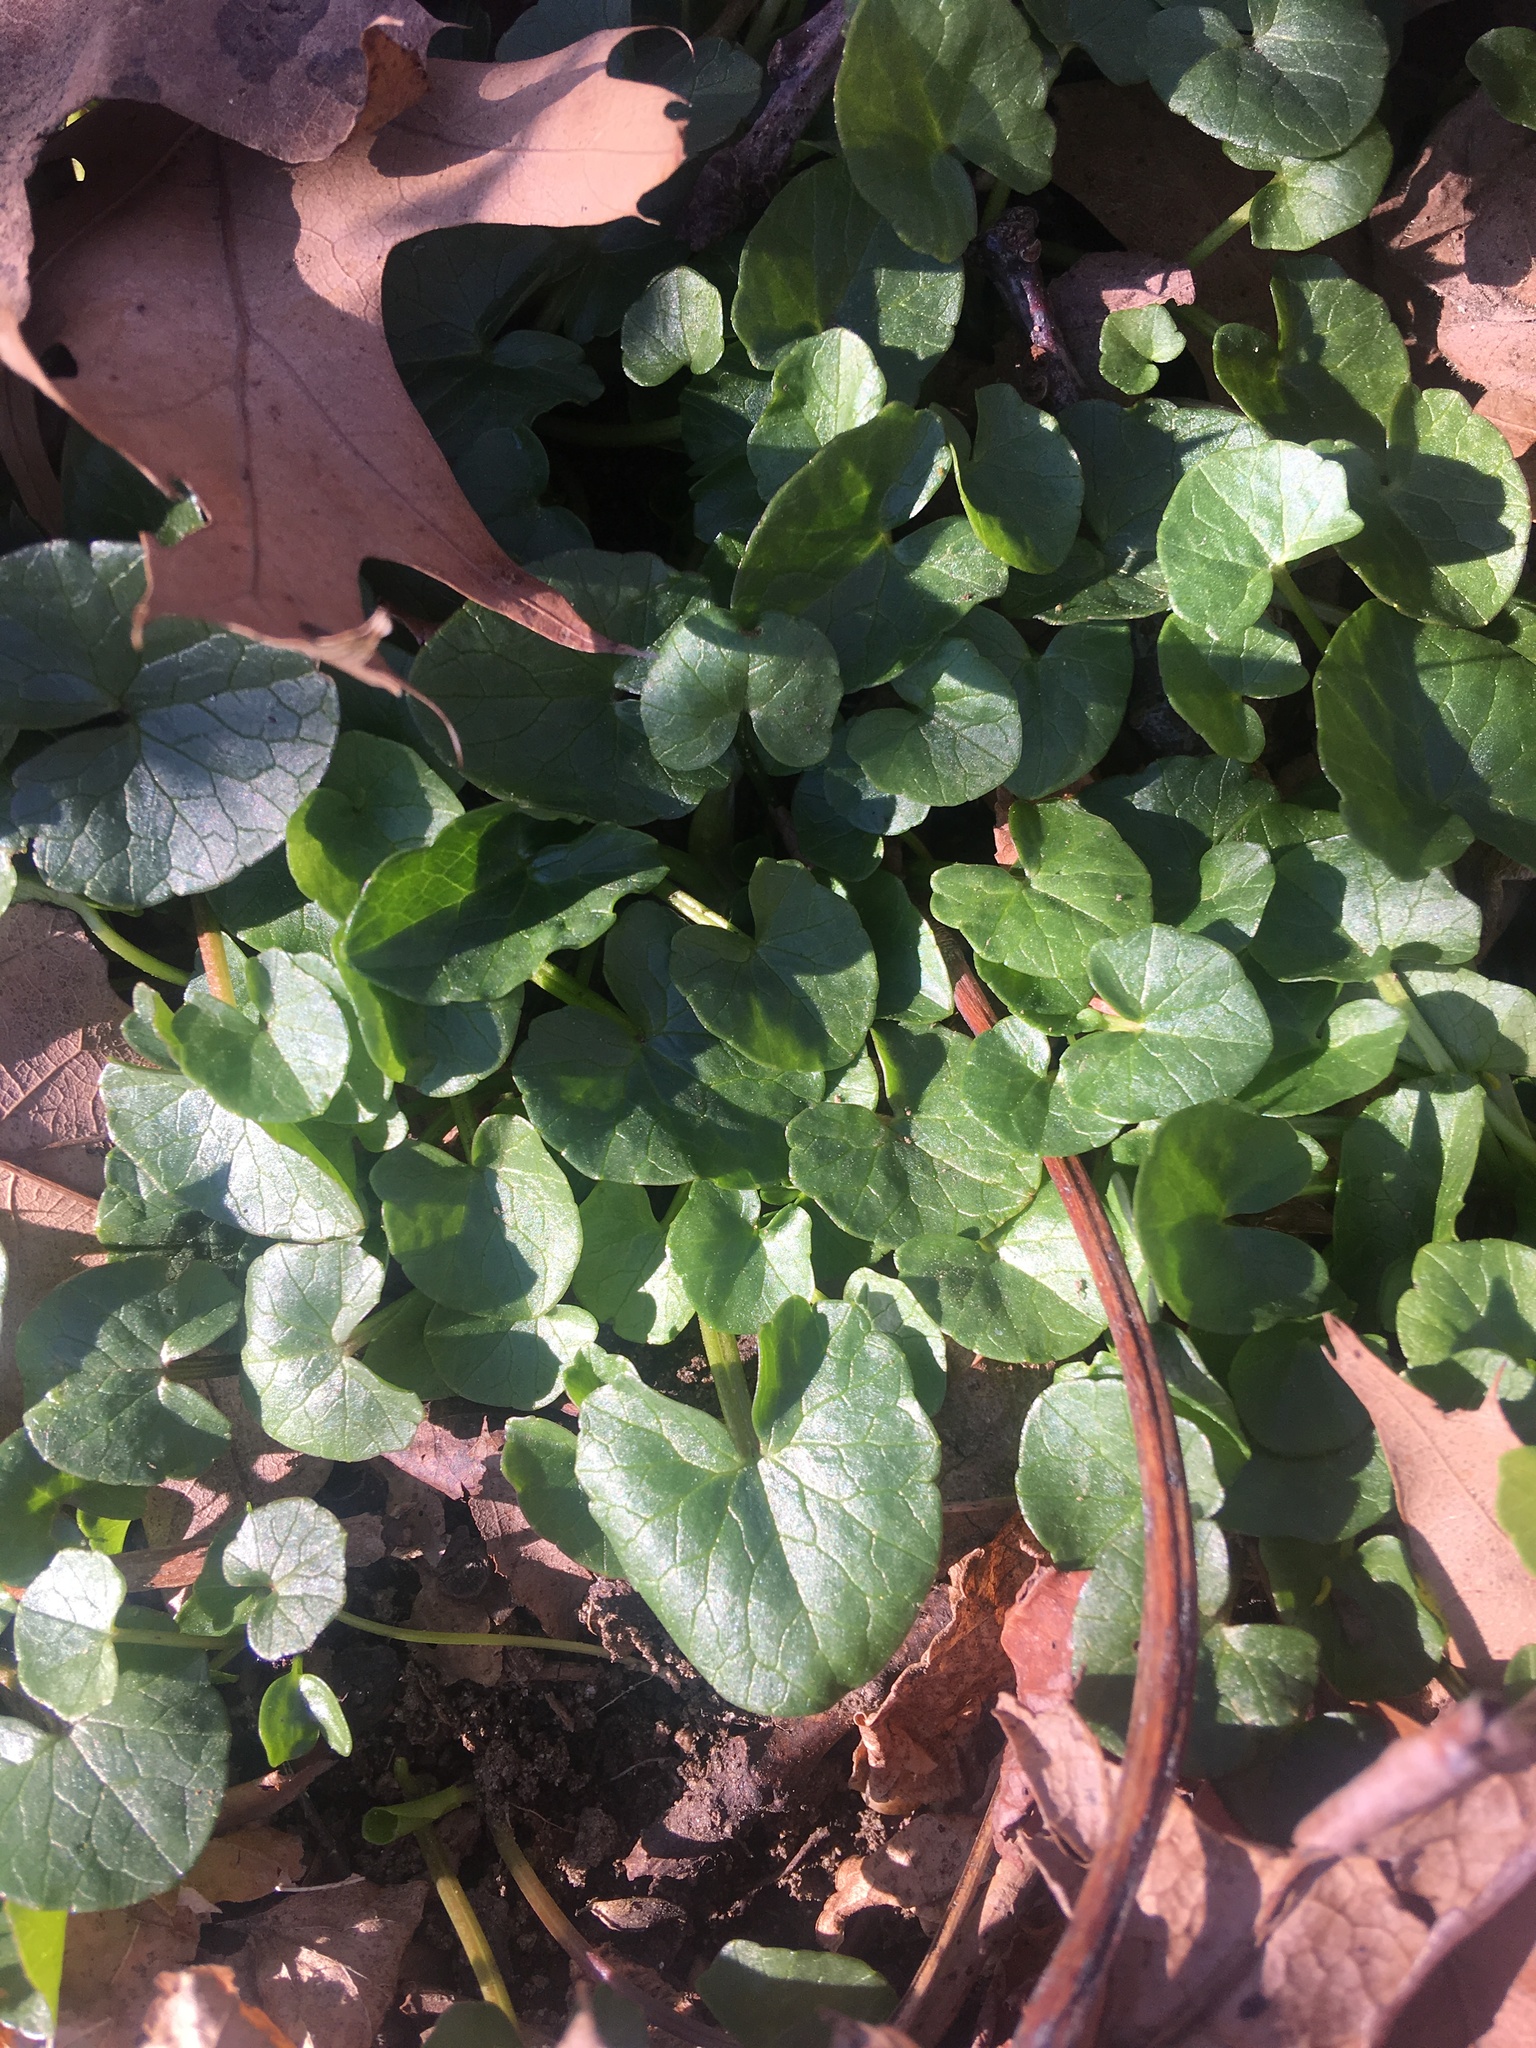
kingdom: Plantae
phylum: Tracheophyta
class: Magnoliopsida
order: Ranunculales
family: Ranunculaceae
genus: Ficaria
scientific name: Ficaria verna
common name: Lesser celandine
